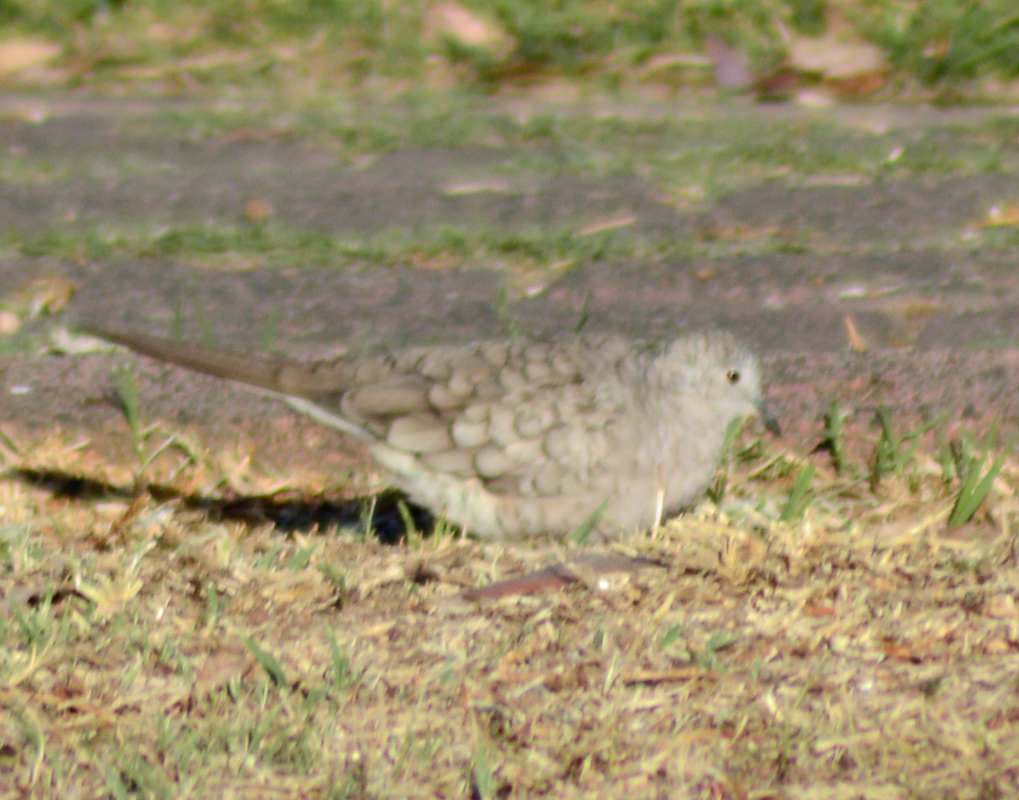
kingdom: Animalia
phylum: Chordata
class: Aves
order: Columbiformes
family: Columbidae
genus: Columbina
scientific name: Columbina inca
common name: Inca dove
